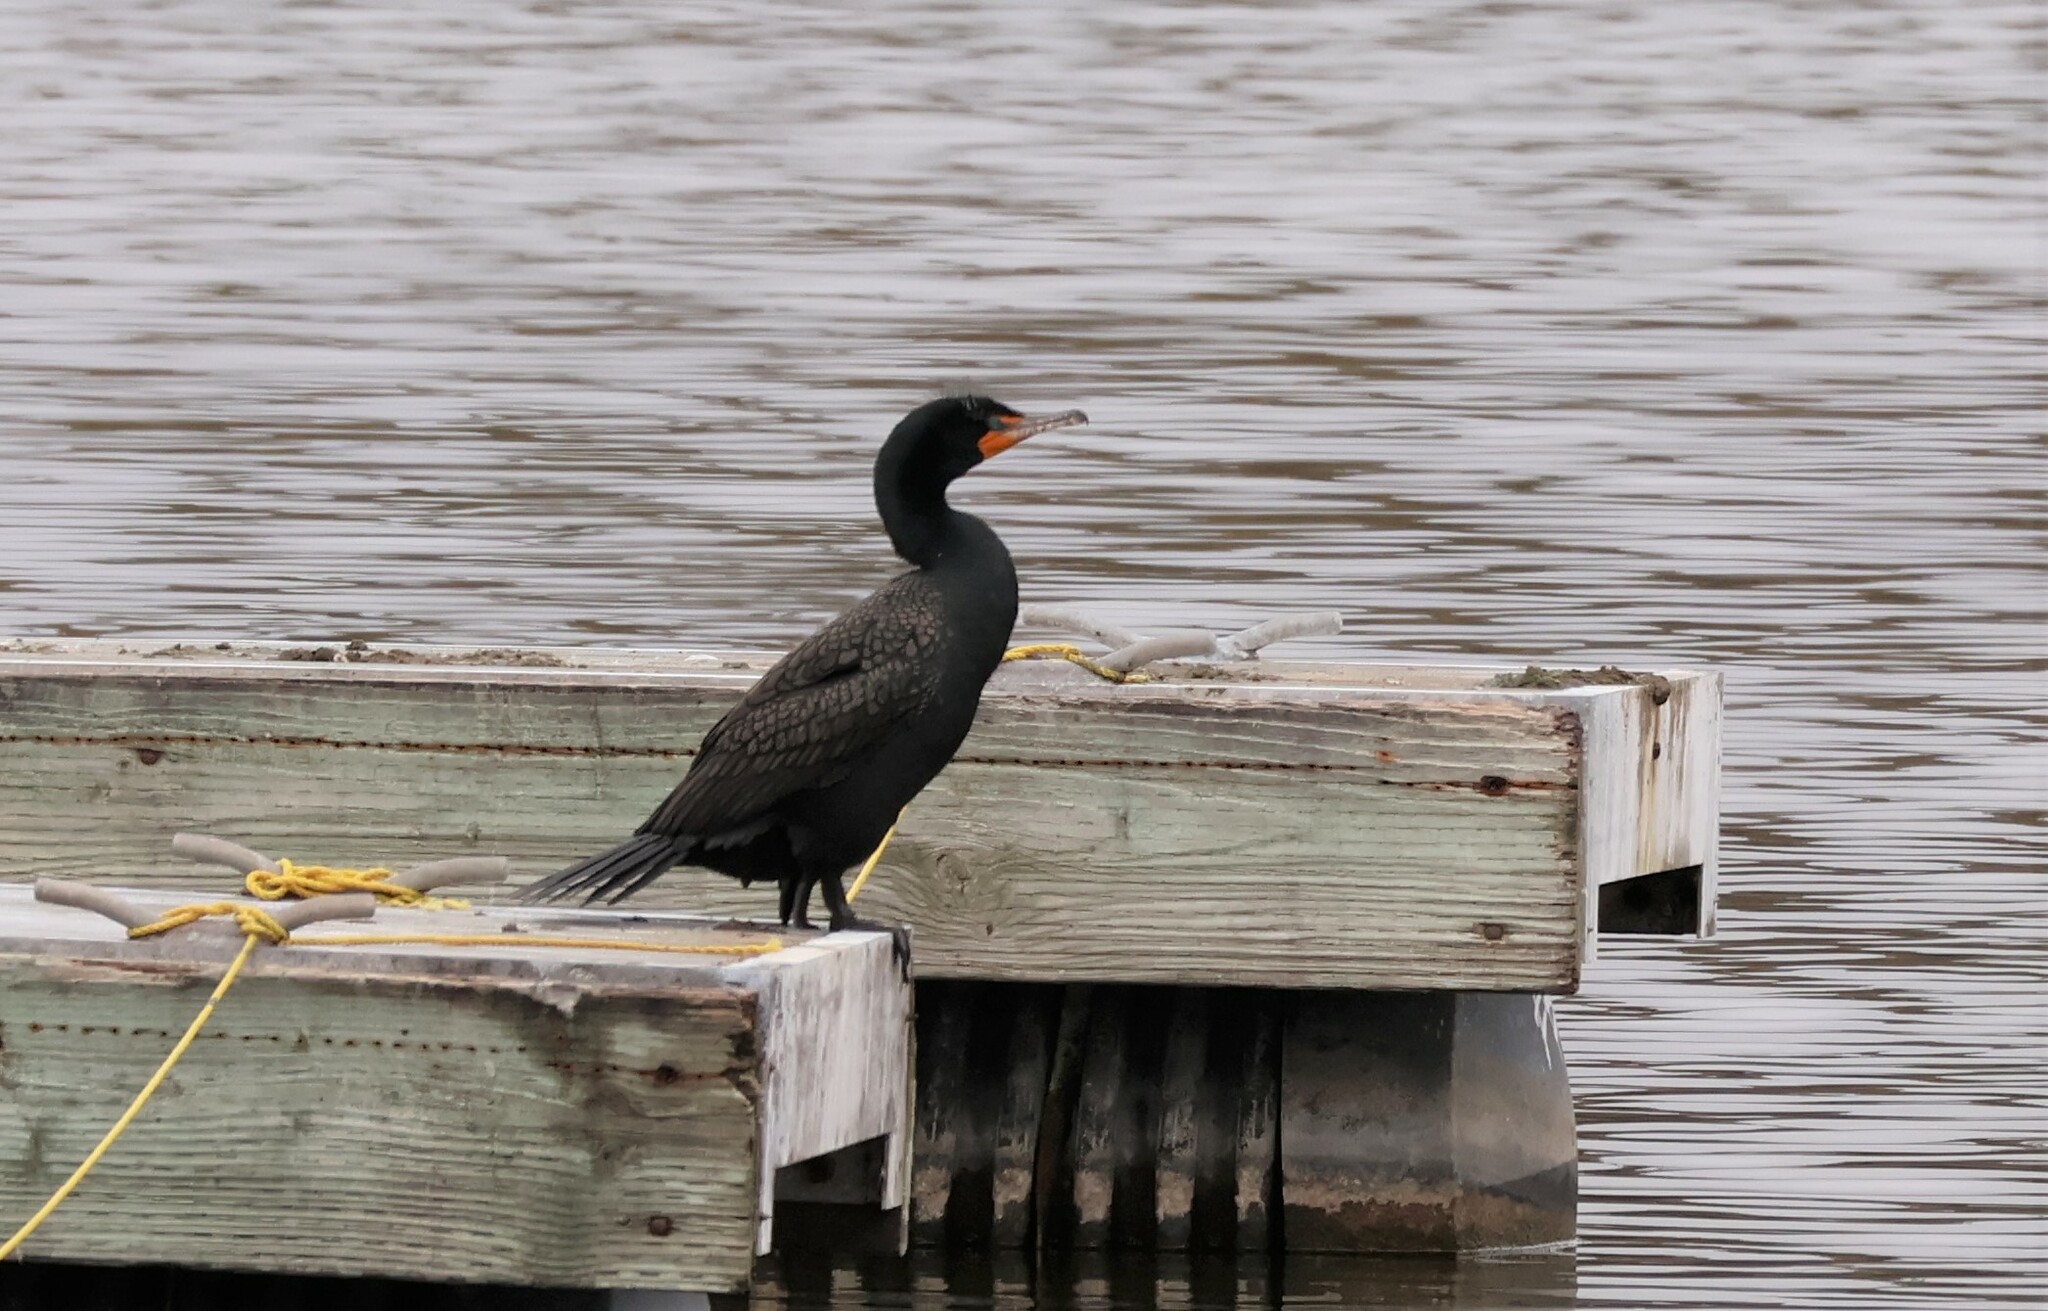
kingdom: Animalia
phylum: Chordata
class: Aves
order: Suliformes
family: Phalacrocoracidae
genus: Phalacrocorax
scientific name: Phalacrocorax auritus
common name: Double-crested cormorant
